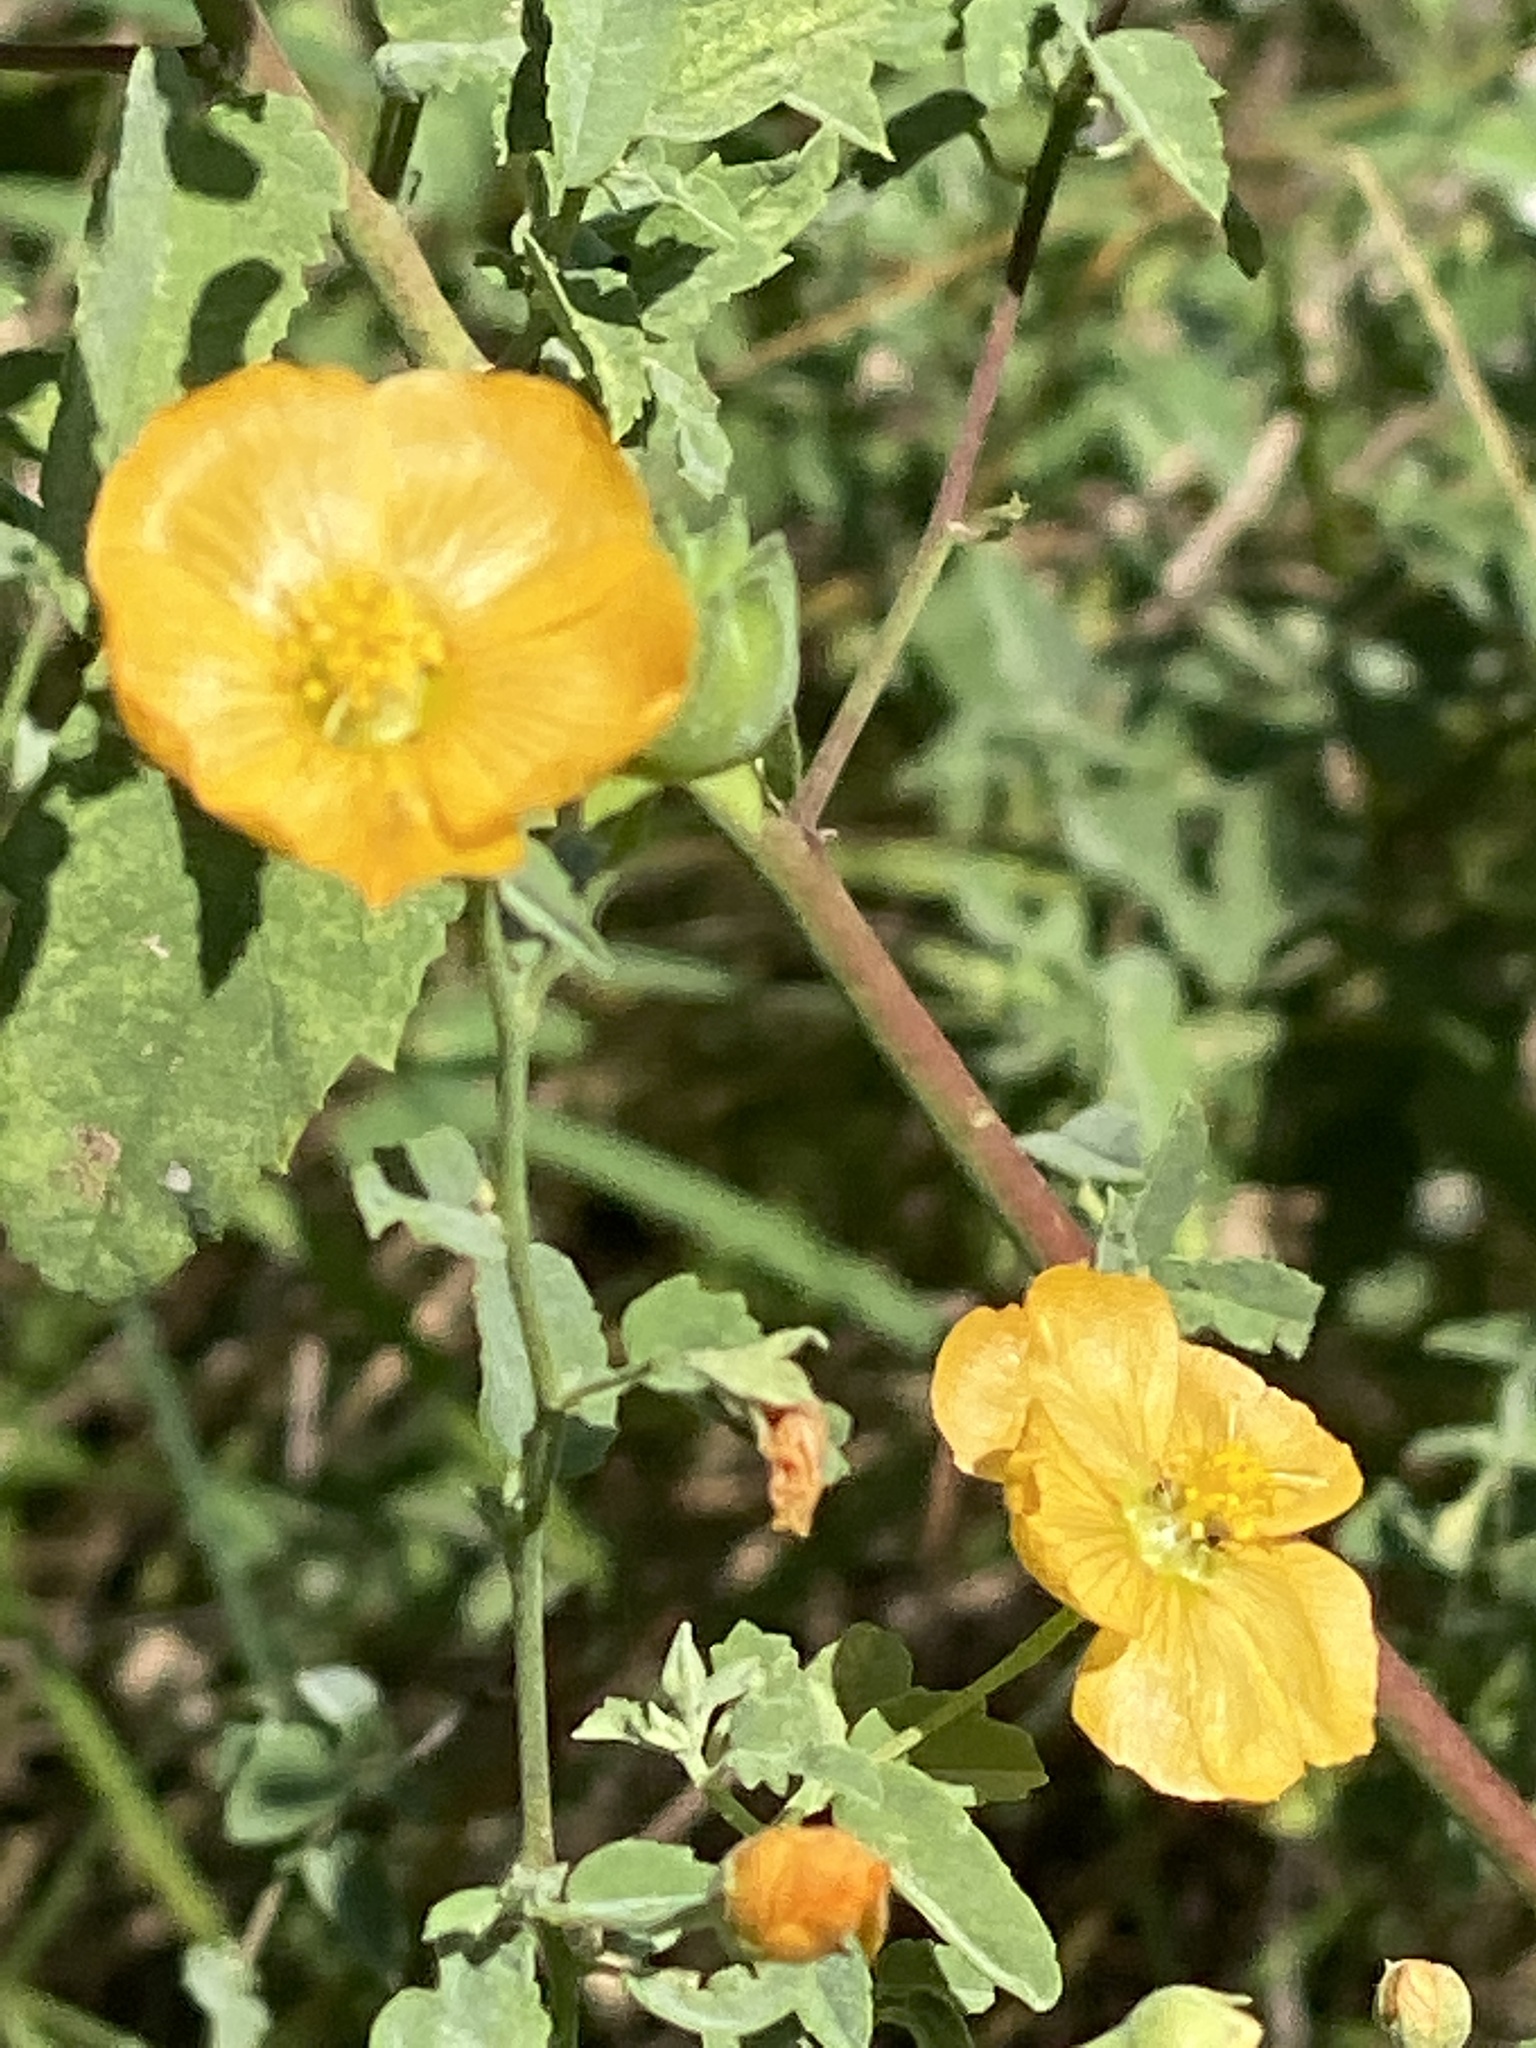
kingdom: Plantae
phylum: Tracheophyta
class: Magnoliopsida
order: Malvales
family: Malvaceae
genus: Abutilon
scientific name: Abutilon fruticosum
